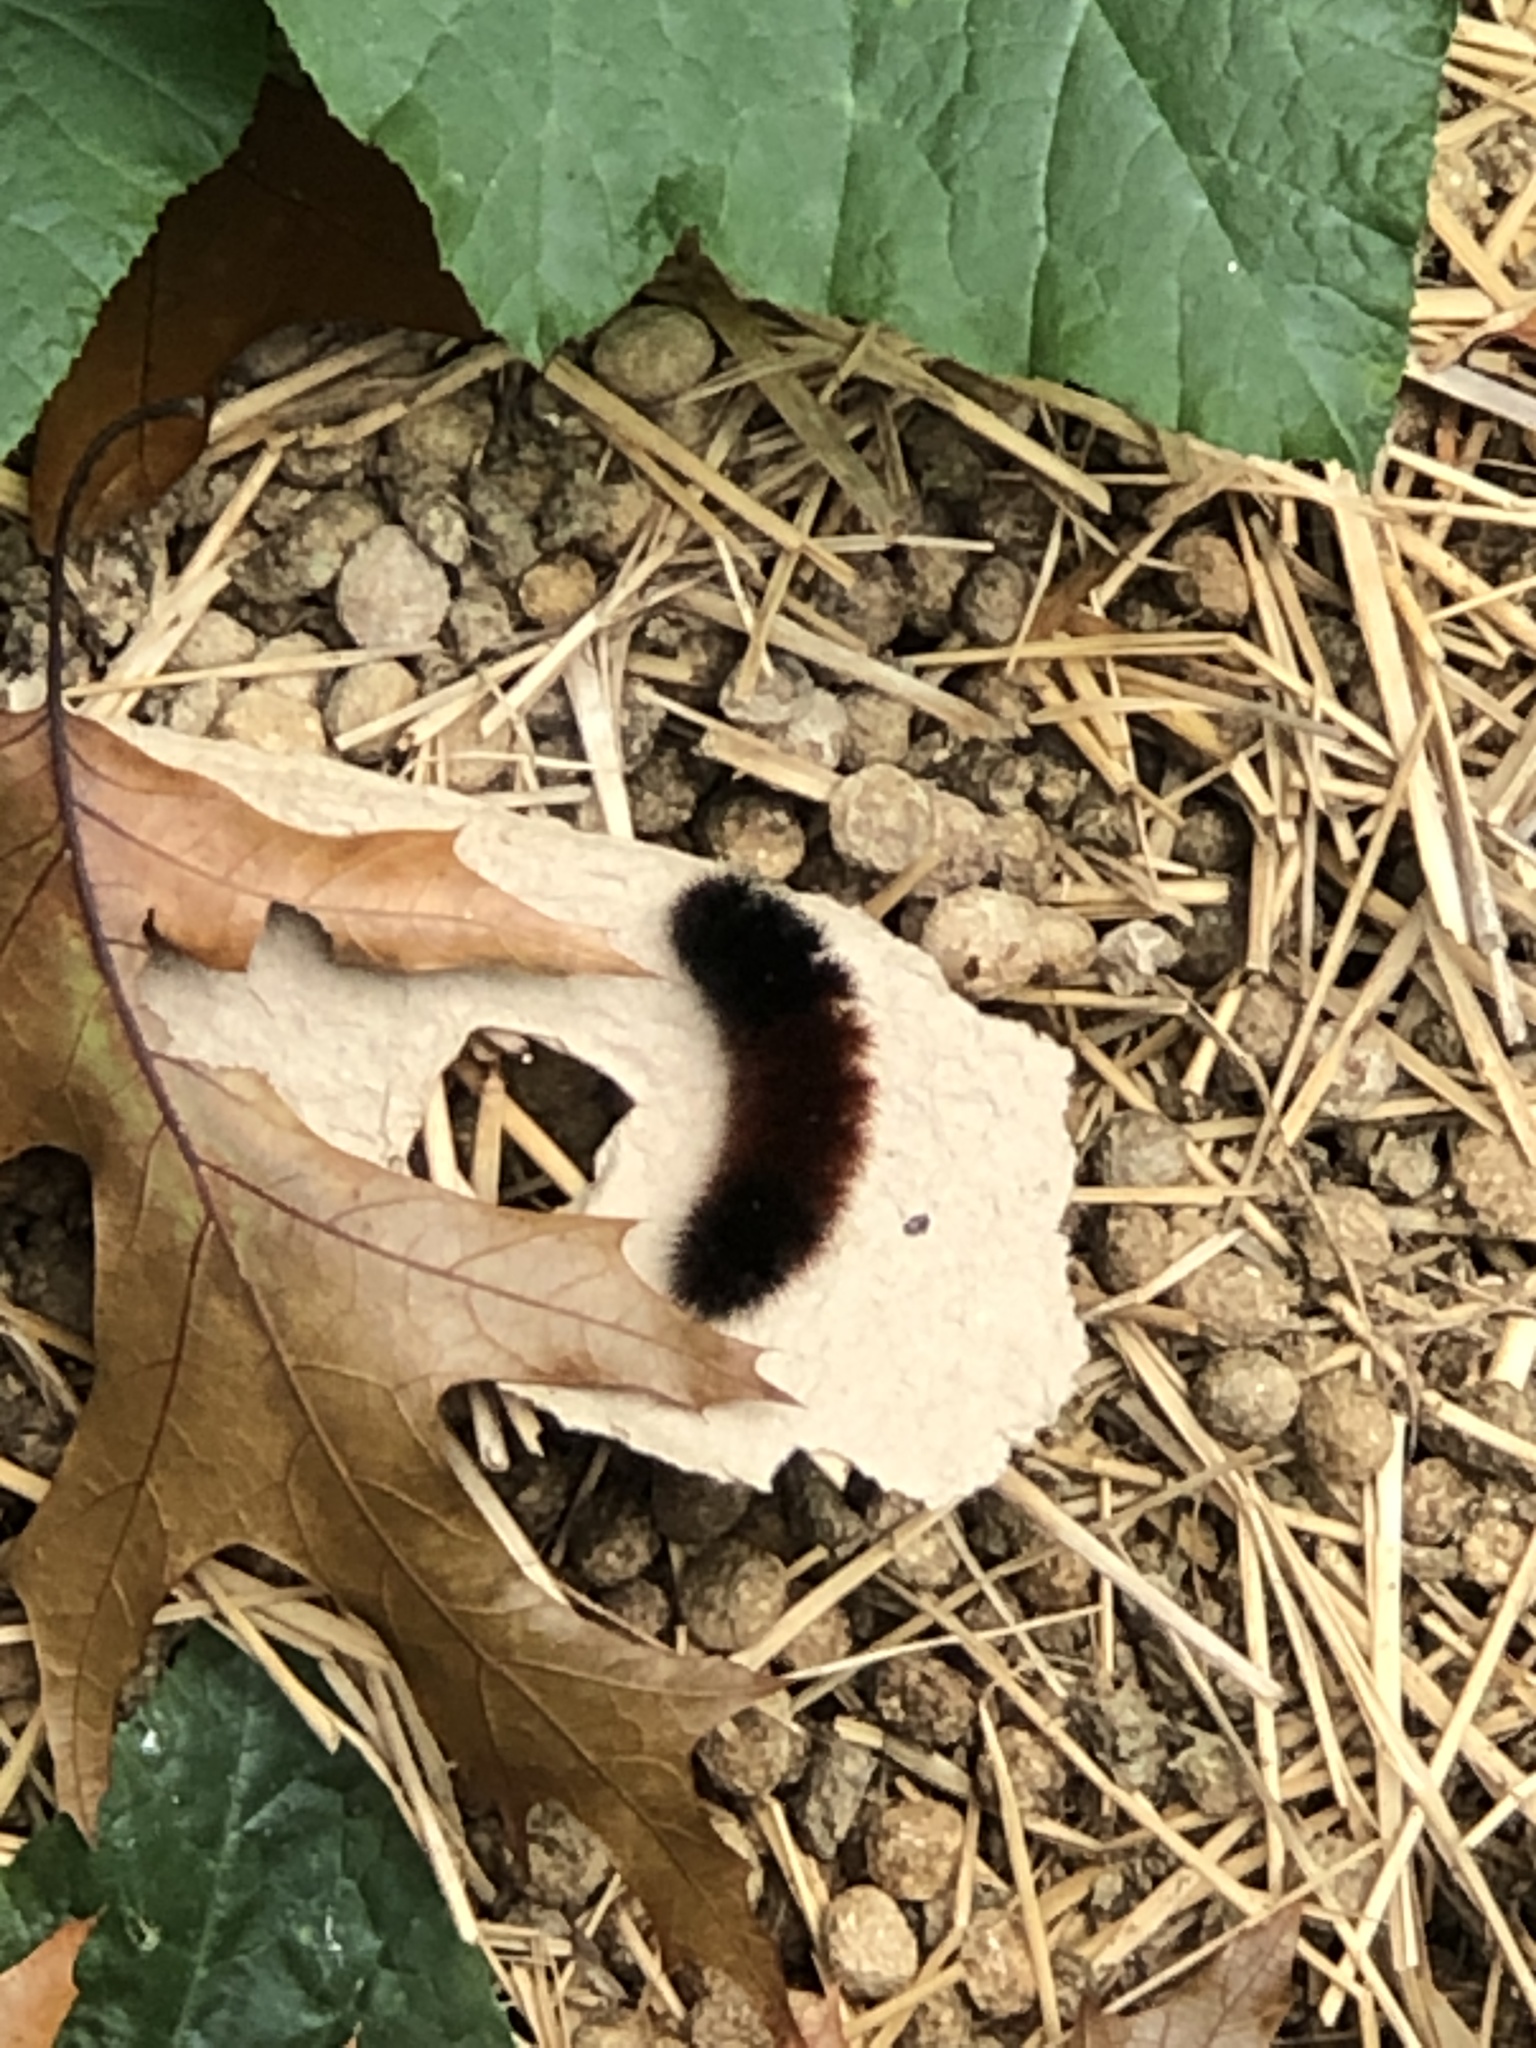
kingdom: Animalia
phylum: Arthropoda
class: Insecta
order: Lepidoptera
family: Erebidae
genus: Pyrrharctia
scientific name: Pyrrharctia isabella
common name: Isabella tiger moth
